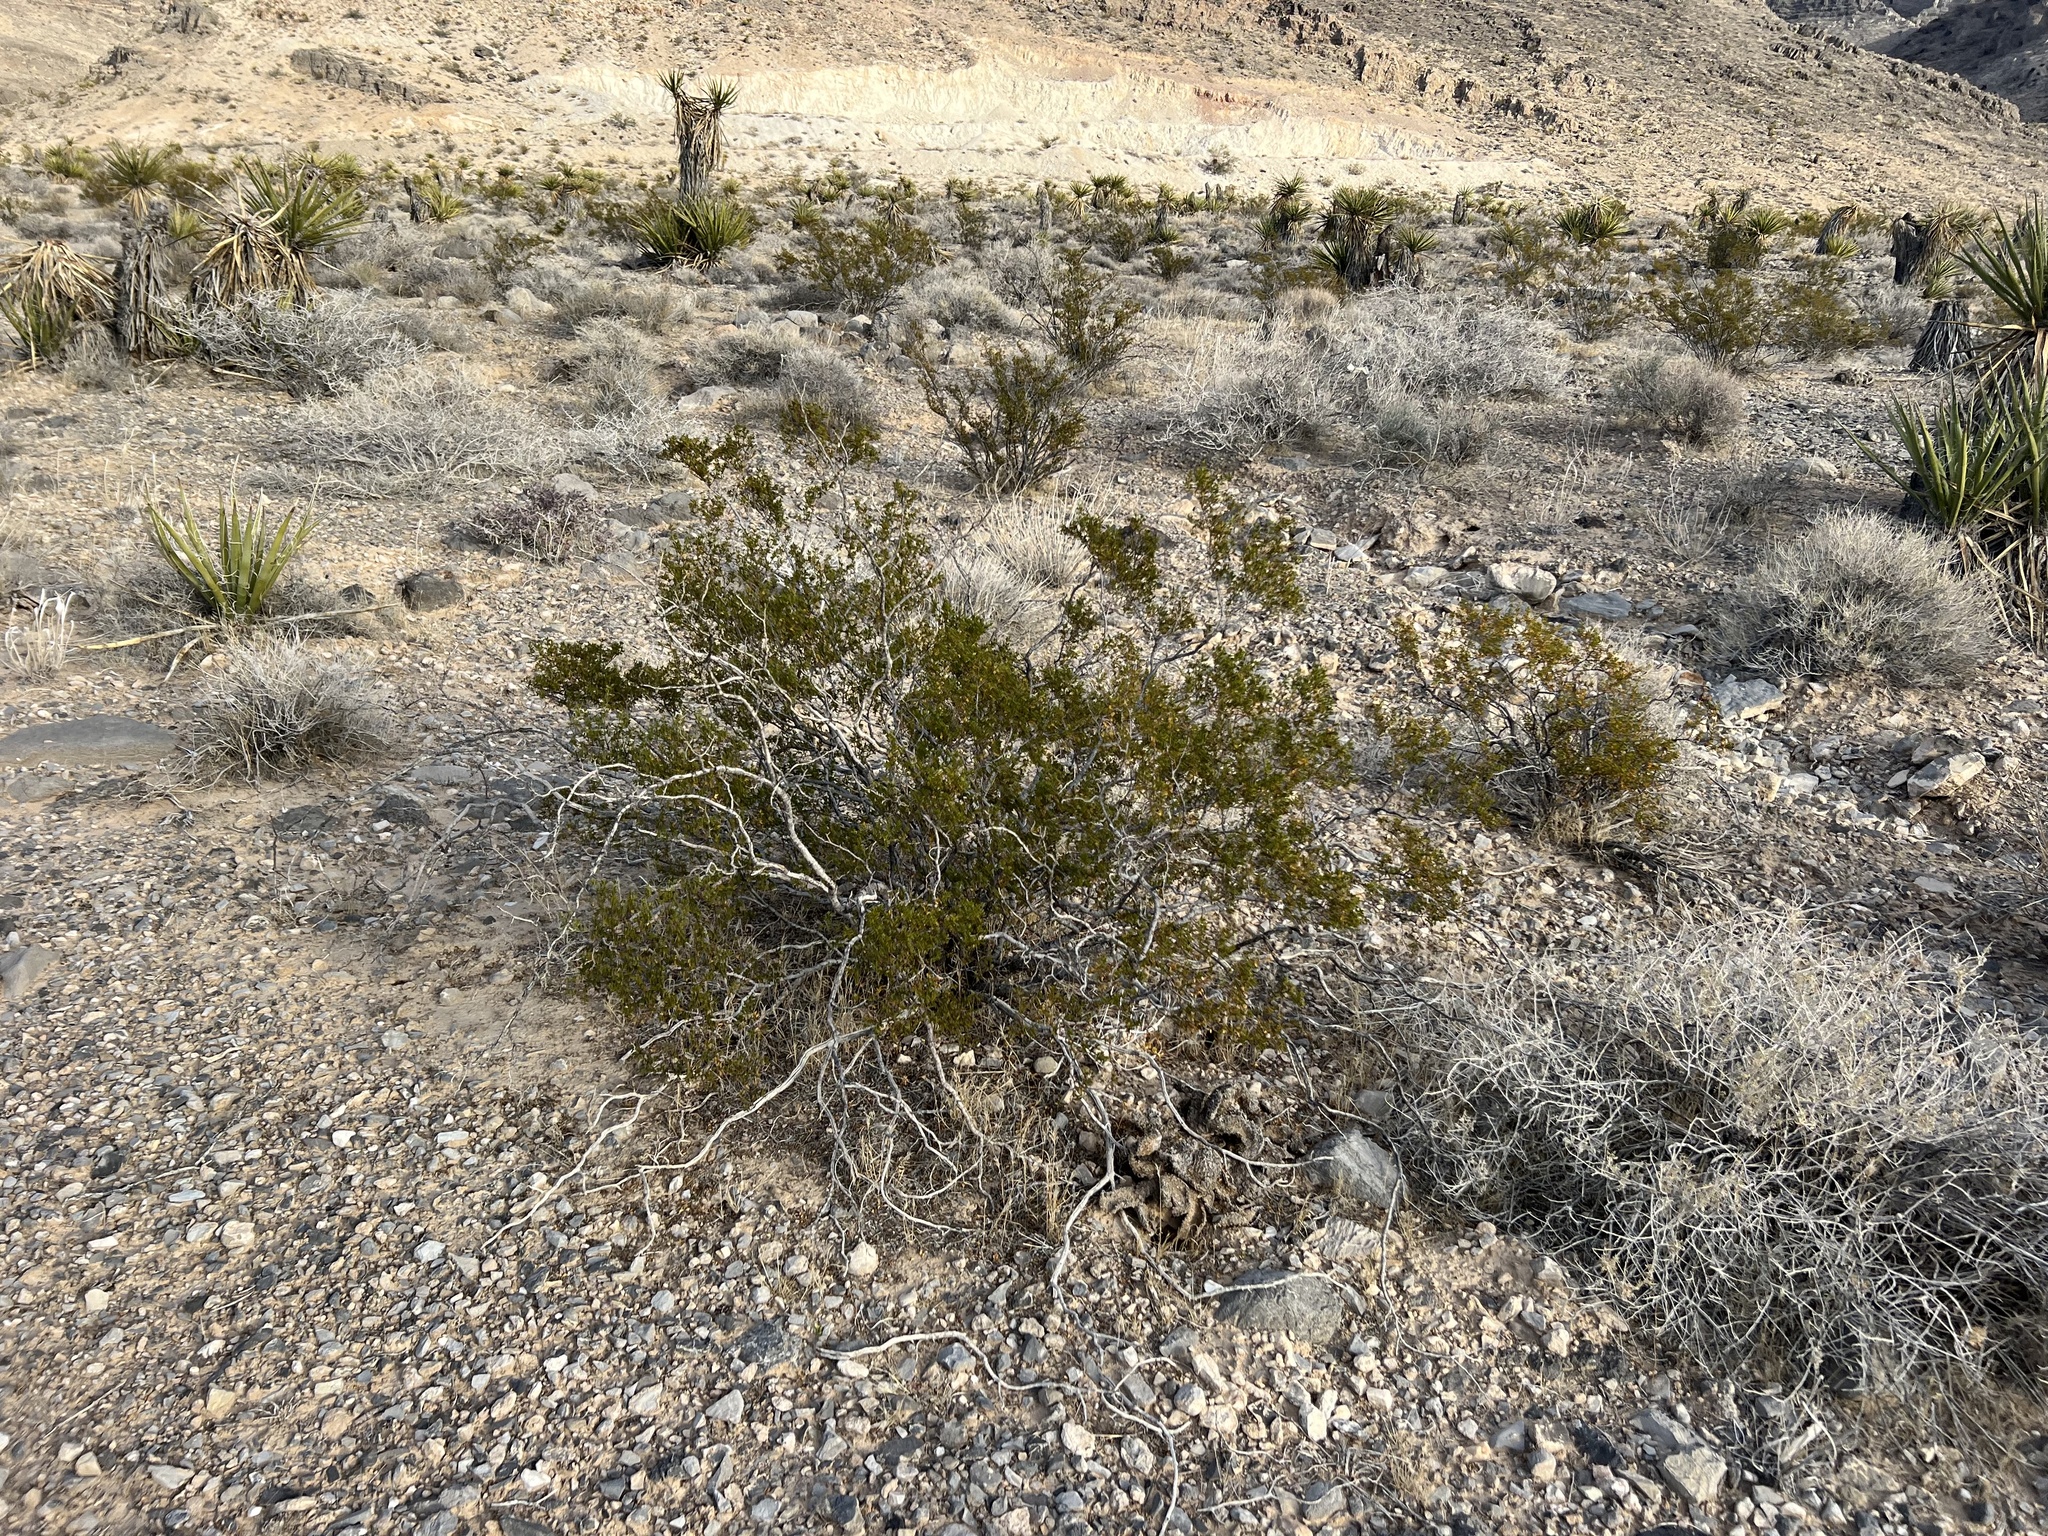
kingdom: Plantae
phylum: Tracheophyta
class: Magnoliopsida
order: Zygophyllales
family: Zygophyllaceae
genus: Larrea
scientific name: Larrea tridentata
